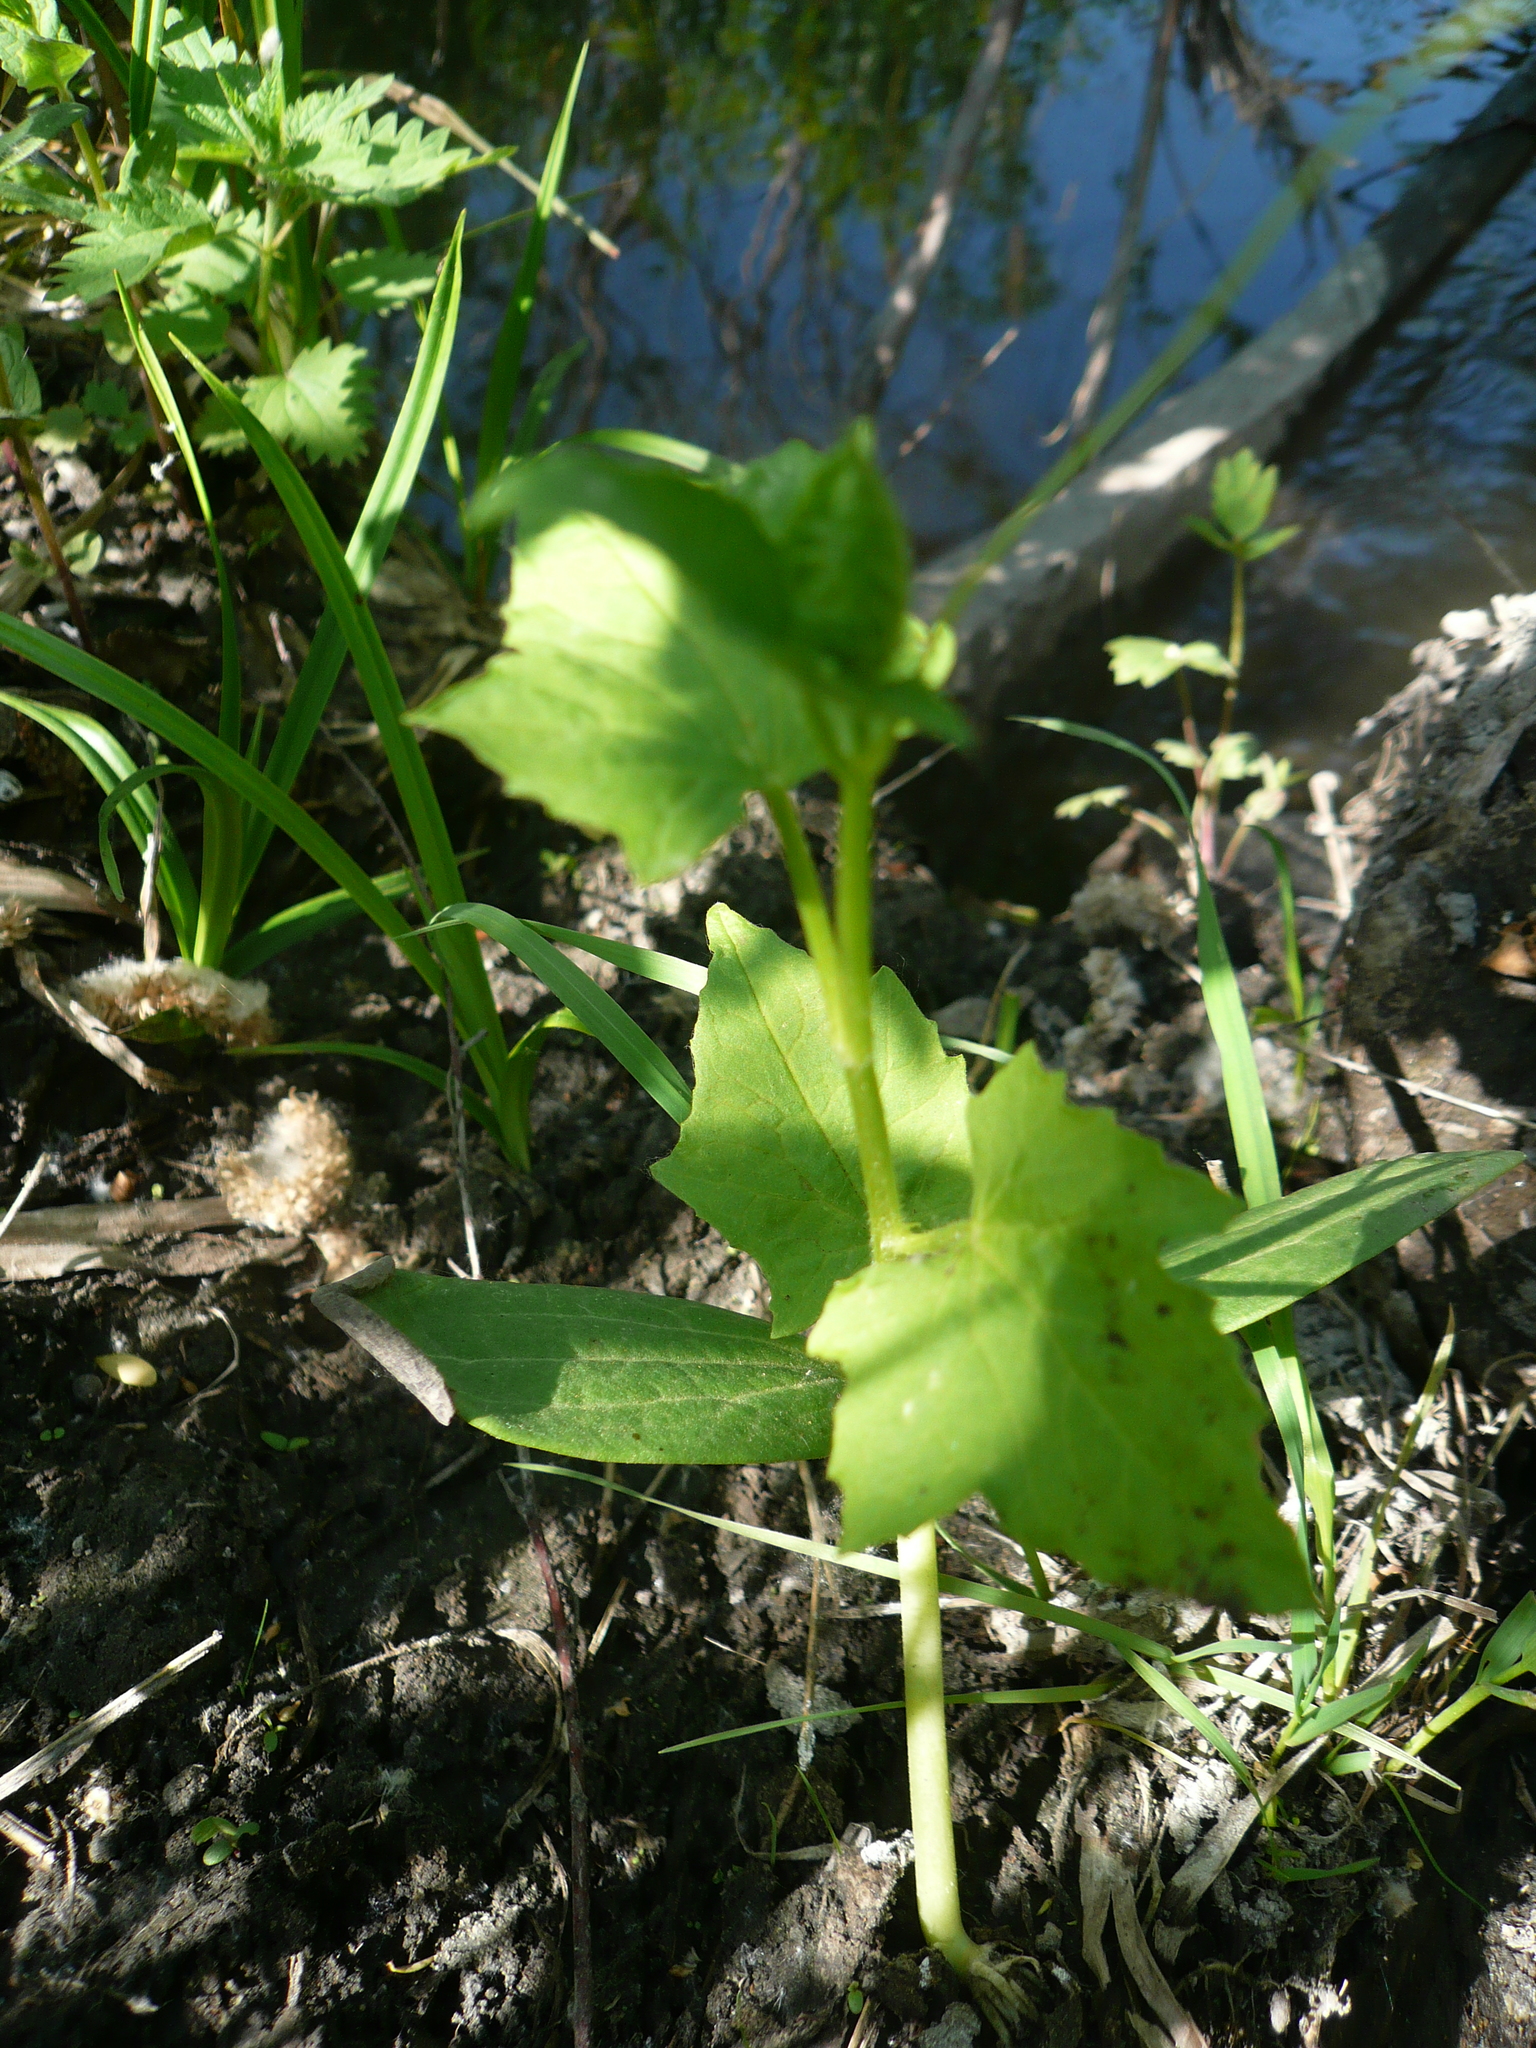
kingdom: Plantae
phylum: Tracheophyta
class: Magnoliopsida
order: Cucurbitales
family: Cucurbitaceae
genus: Echinocystis
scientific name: Echinocystis lobata
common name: Wild cucumber
